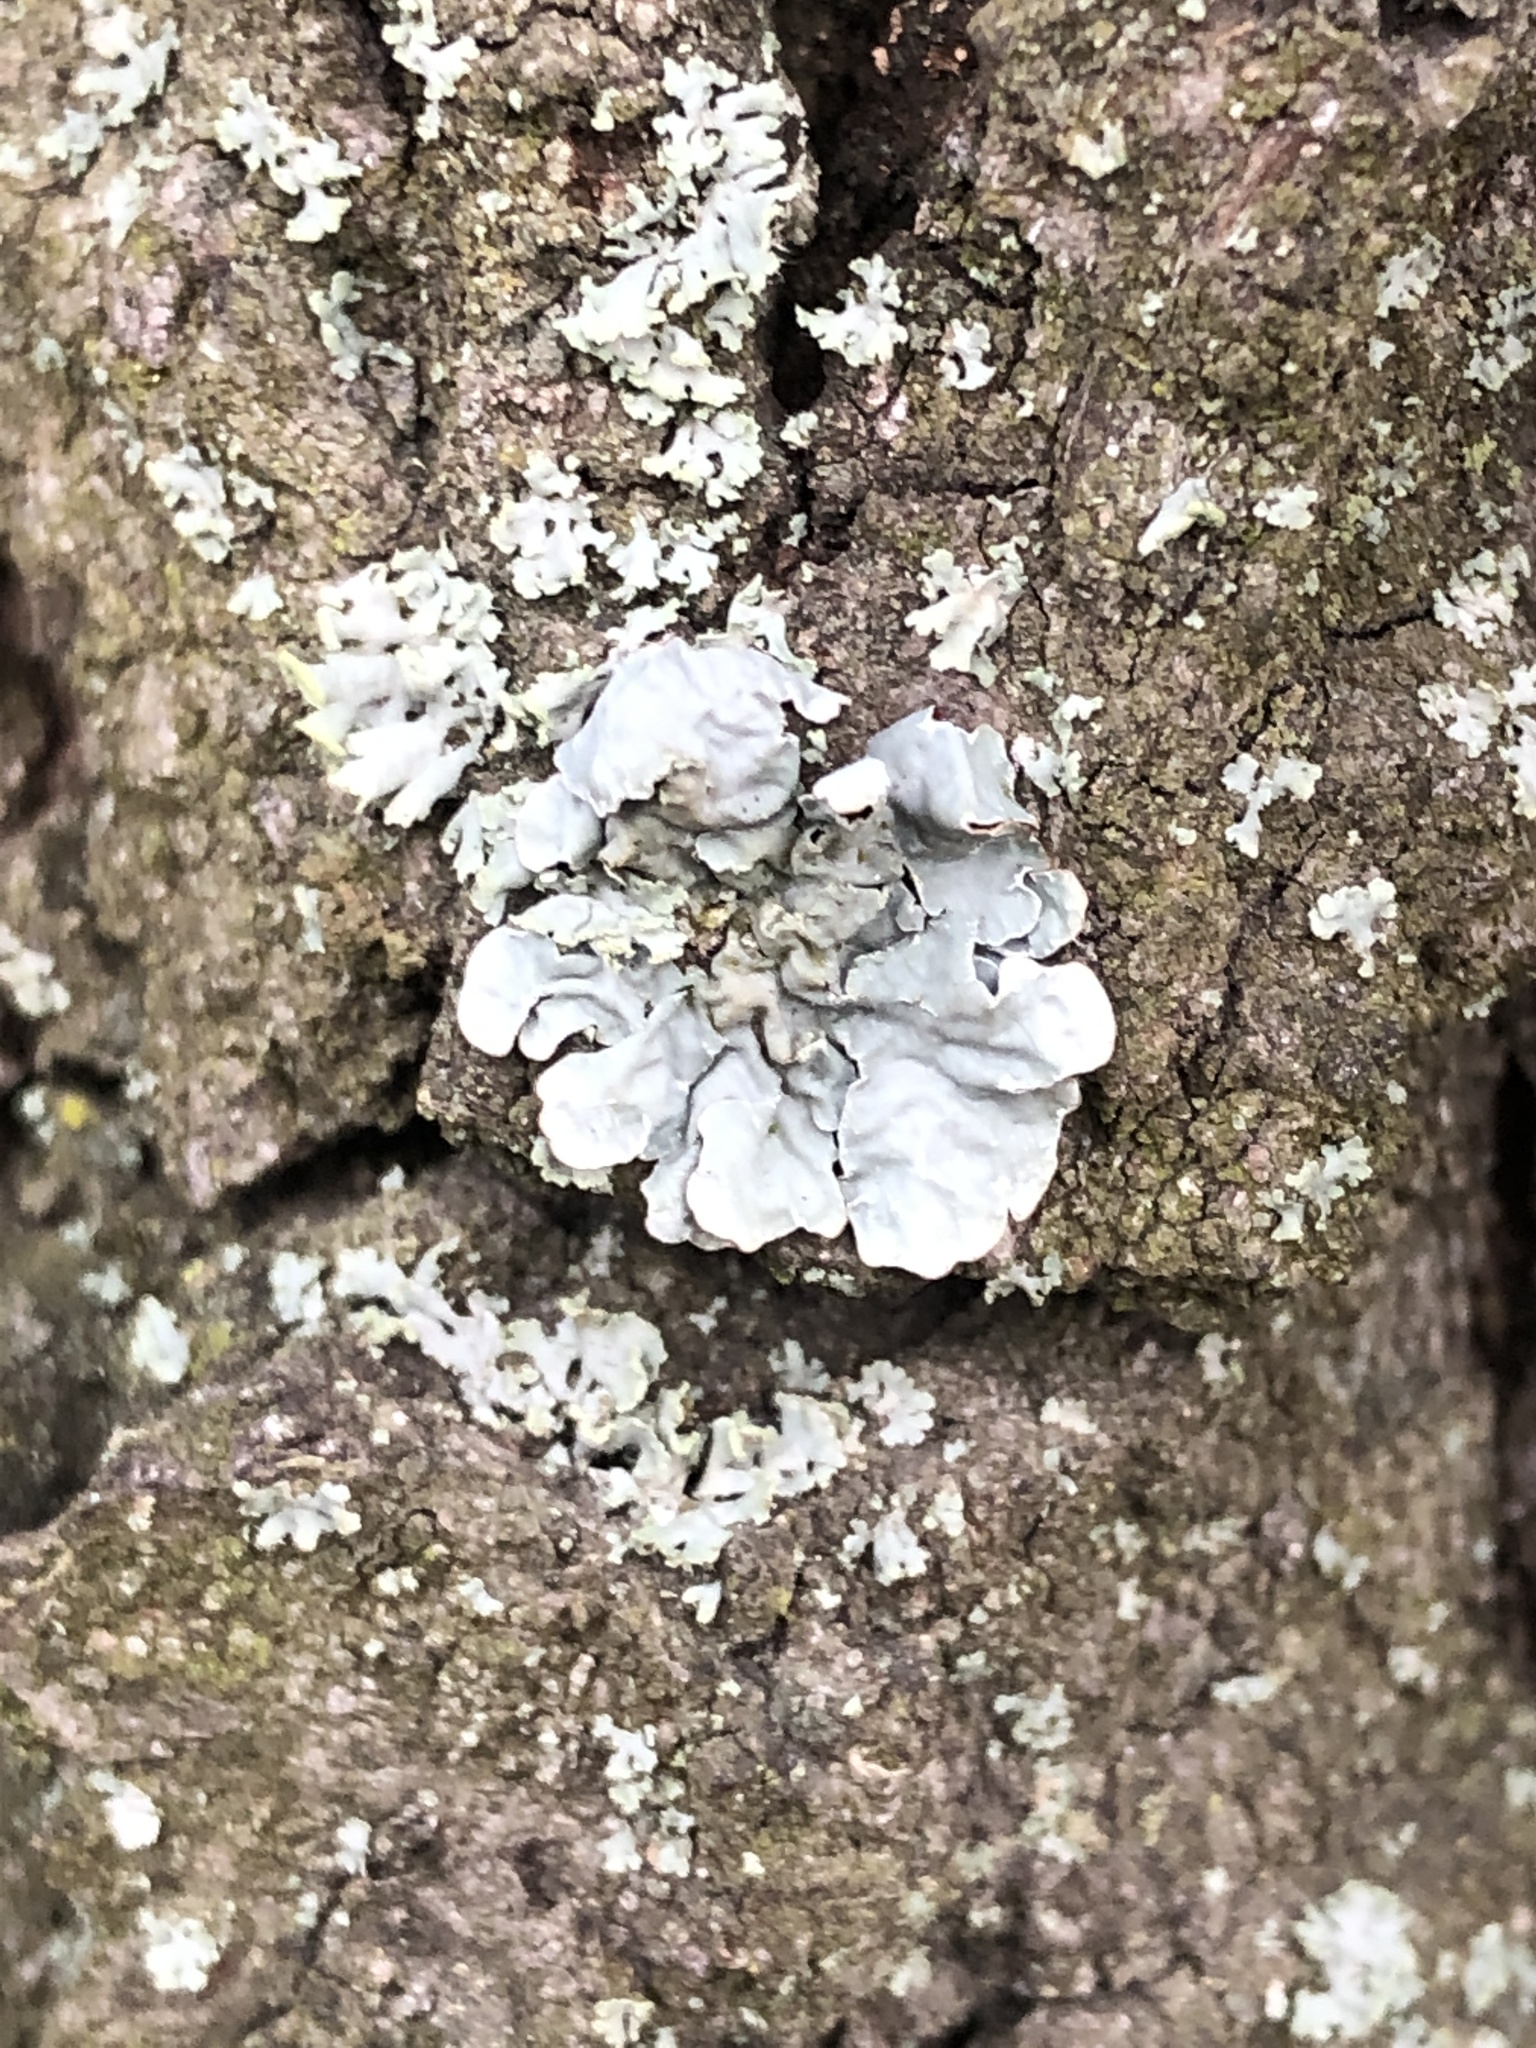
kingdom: Fungi
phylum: Ascomycota
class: Lecanoromycetes
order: Lecanorales
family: Parmeliaceae
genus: Parmelia
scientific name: Parmelia sulcata
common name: Netted shield lichen
